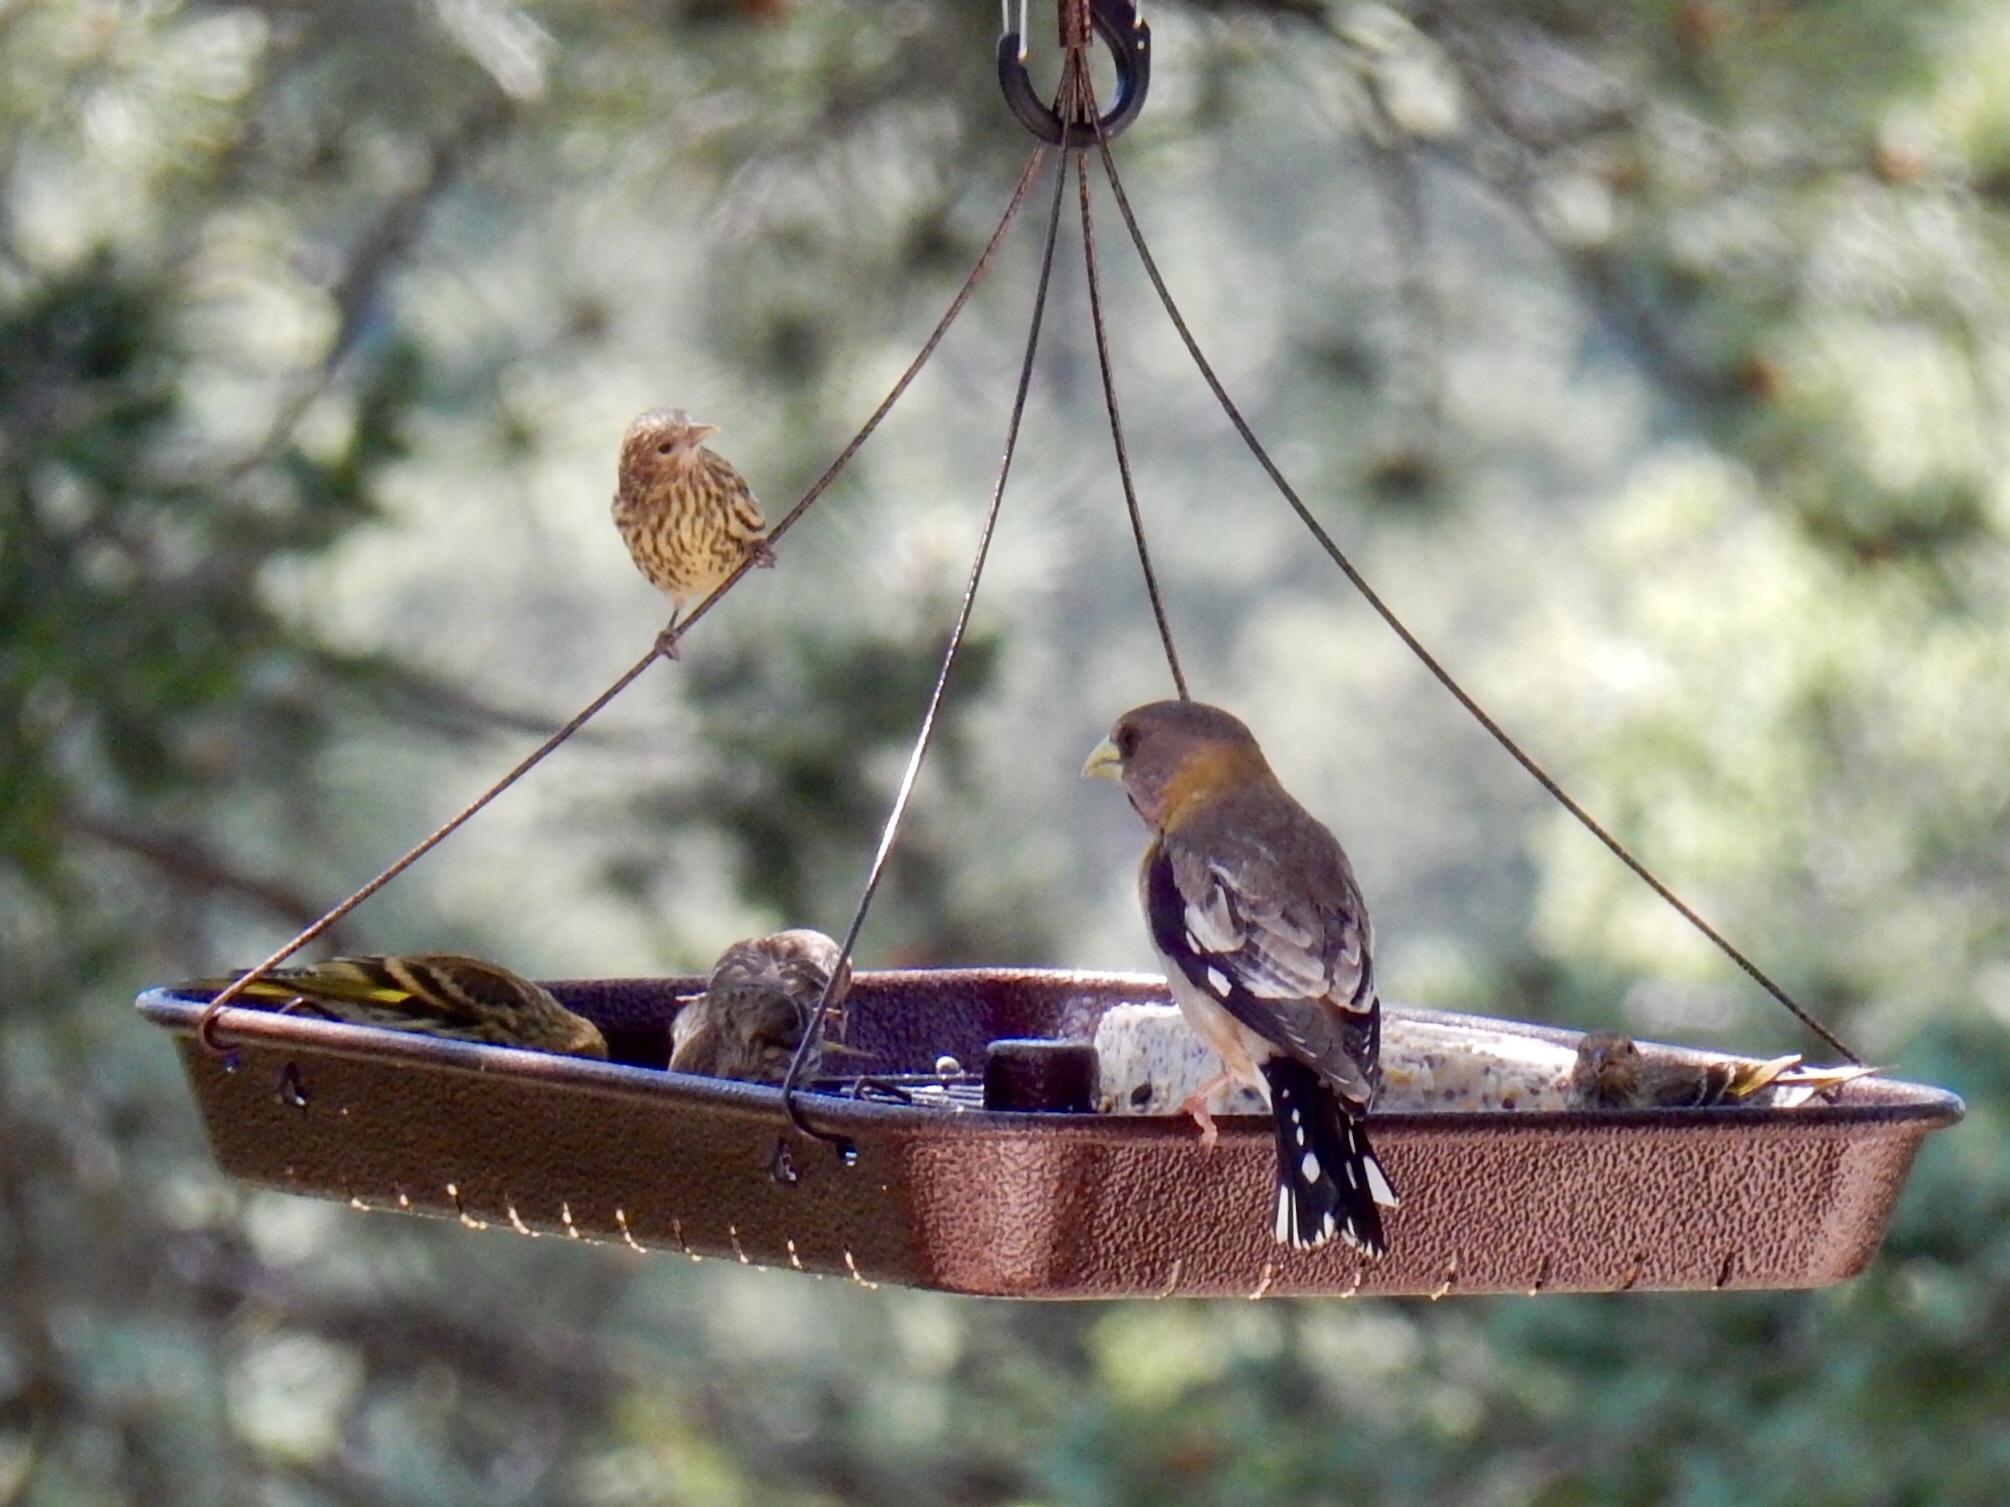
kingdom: Animalia
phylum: Chordata
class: Aves
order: Passeriformes
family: Fringillidae
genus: Hesperiphona
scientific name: Hesperiphona vespertina
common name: Evening grosbeak
